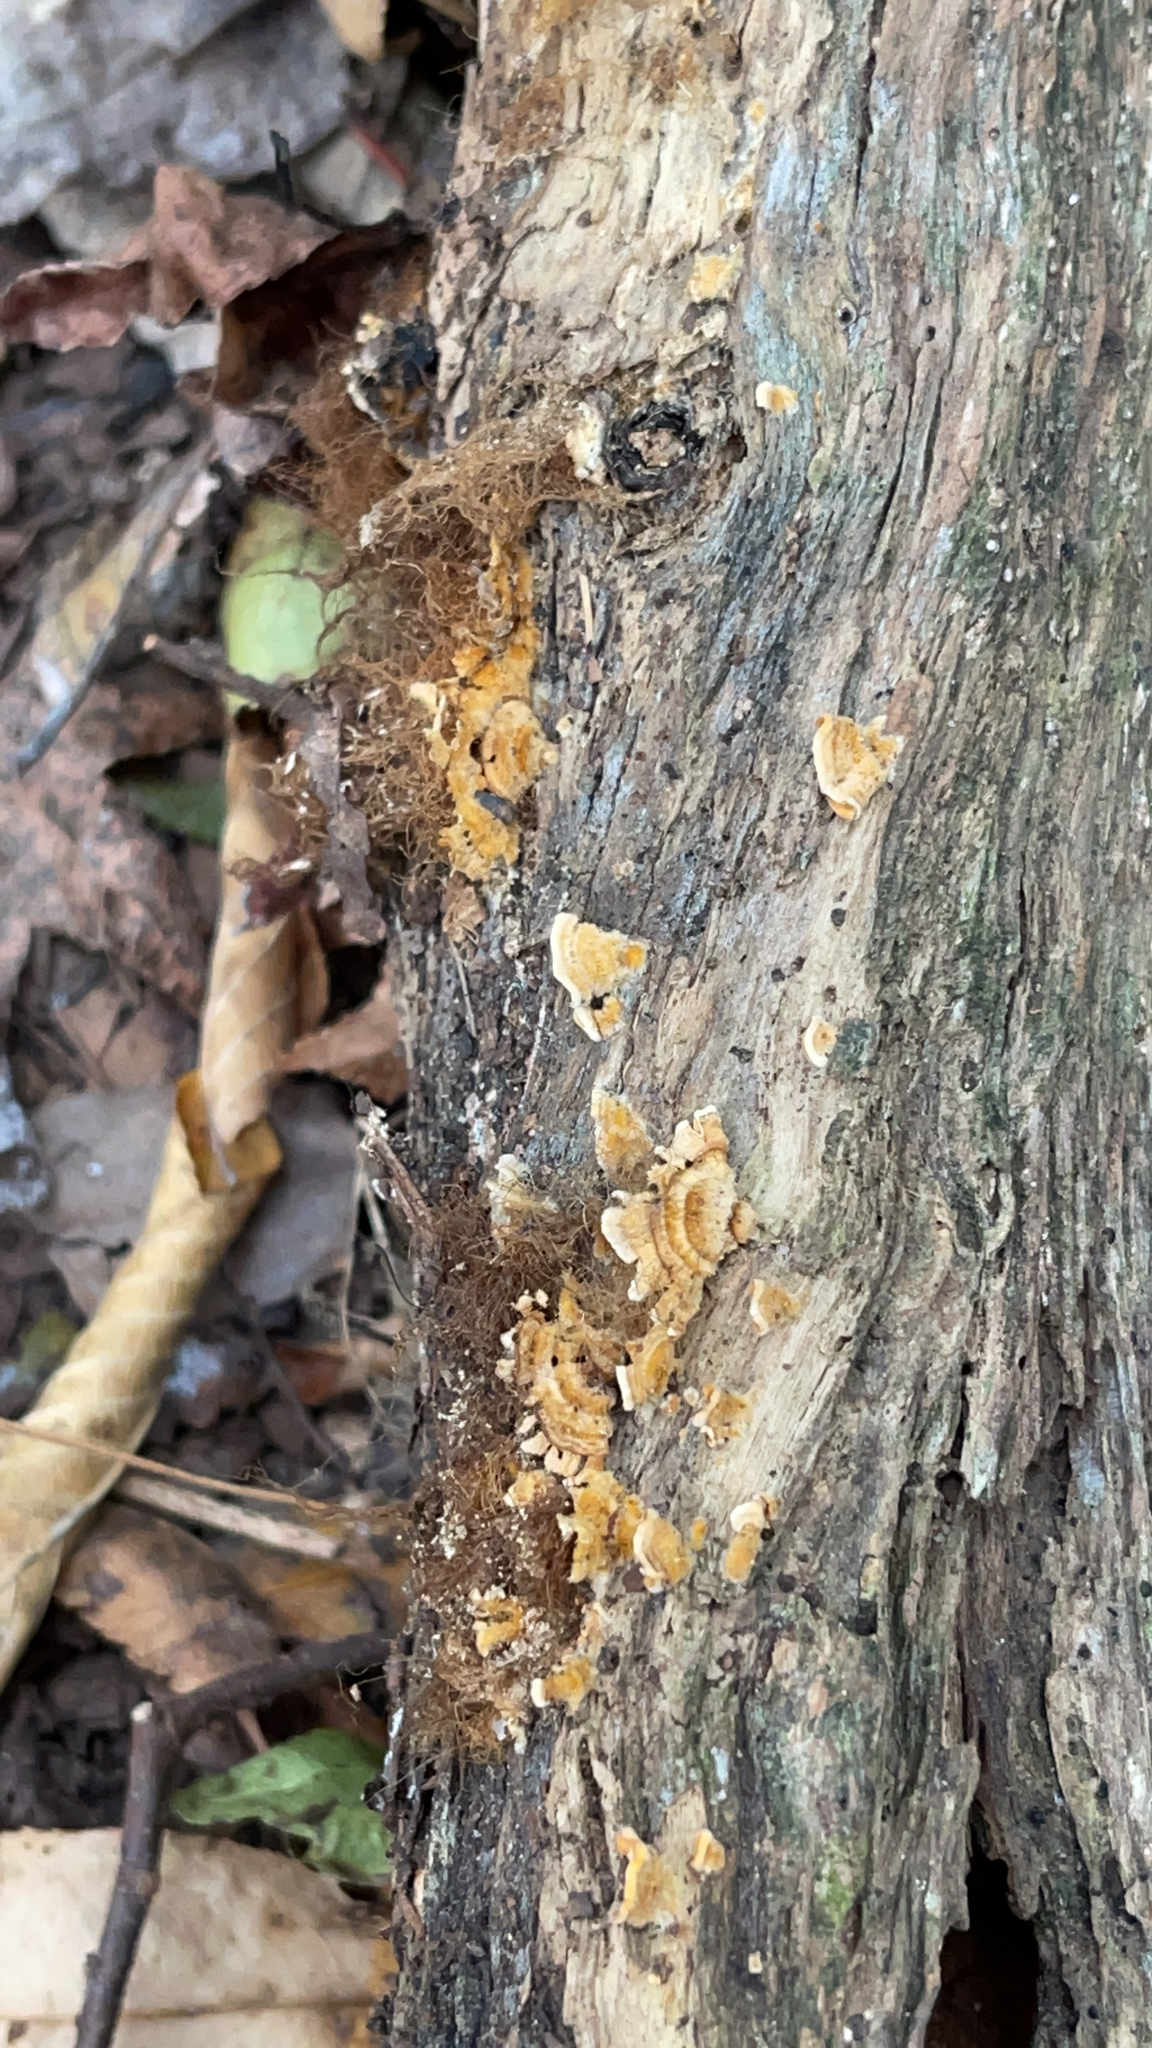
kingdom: Fungi
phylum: Basidiomycota
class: Agaricomycetes
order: Russulales
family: Stereaceae
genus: Stereum
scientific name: Stereum complicatum
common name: Crowded parchment
